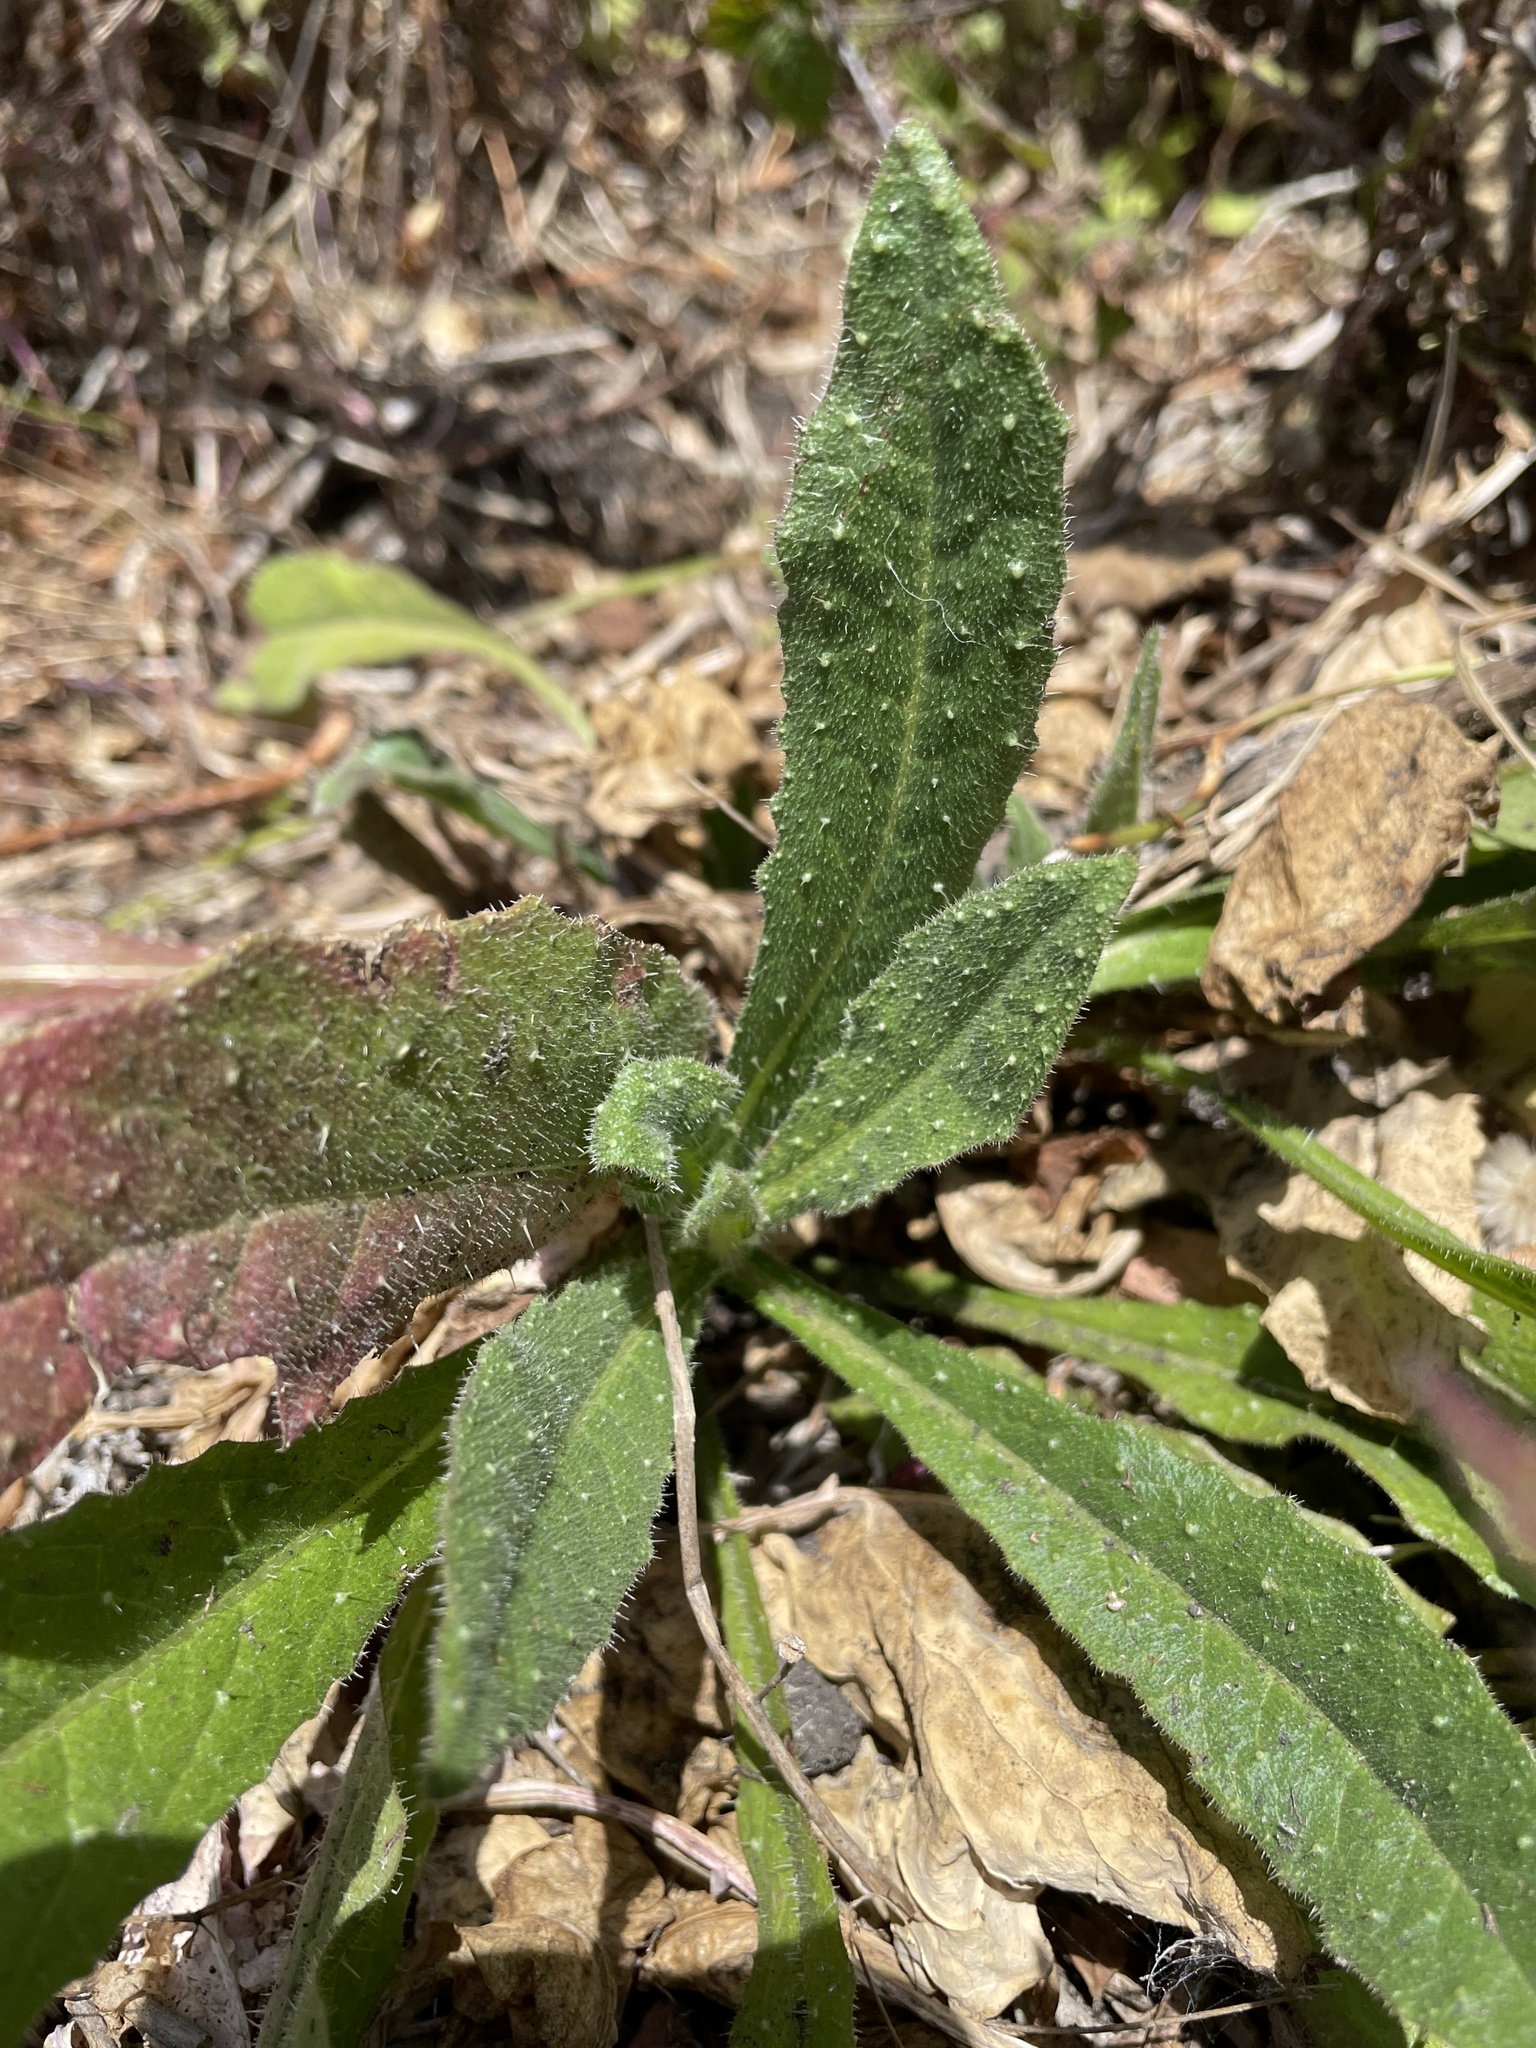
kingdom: Plantae
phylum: Tracheophyta
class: Magnoliopsida
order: Asterales
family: Asteraceae
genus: Helminthotheca
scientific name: Helminthotheca echioides
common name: Ox-tongue
